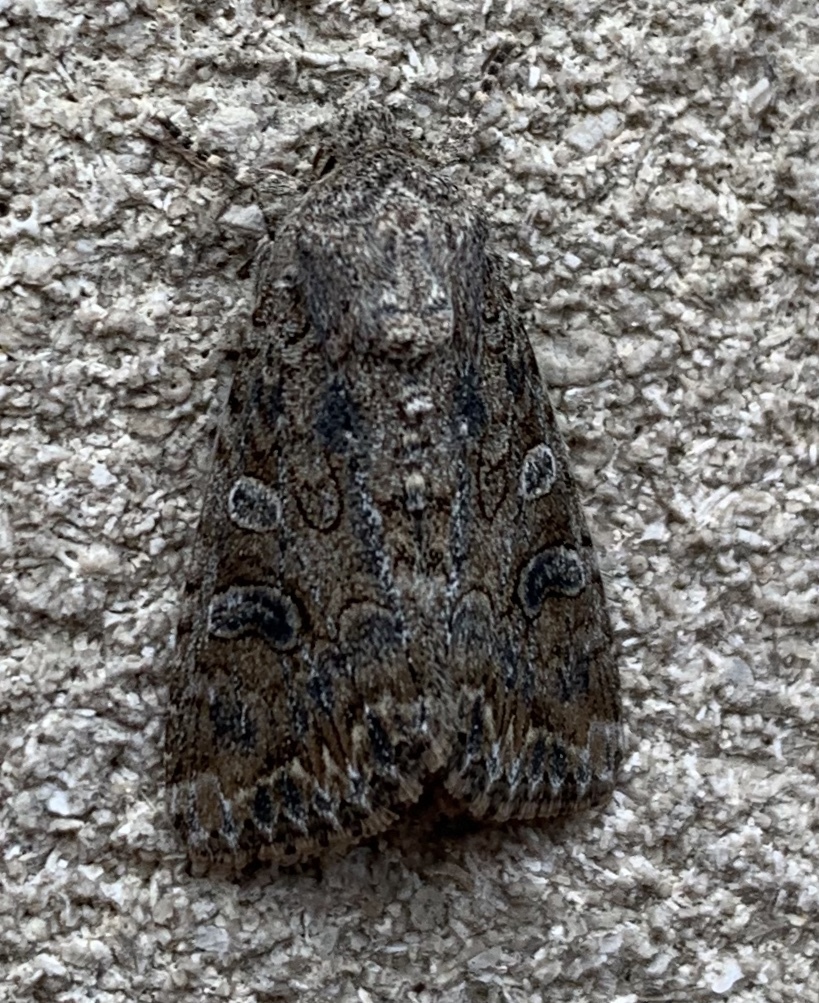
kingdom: Animalia
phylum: Arthropoda
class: Insecta
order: Lepidoptera
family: Noctuidae
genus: Anarta
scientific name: Anarta trifolii
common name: Clover cutworm moth
